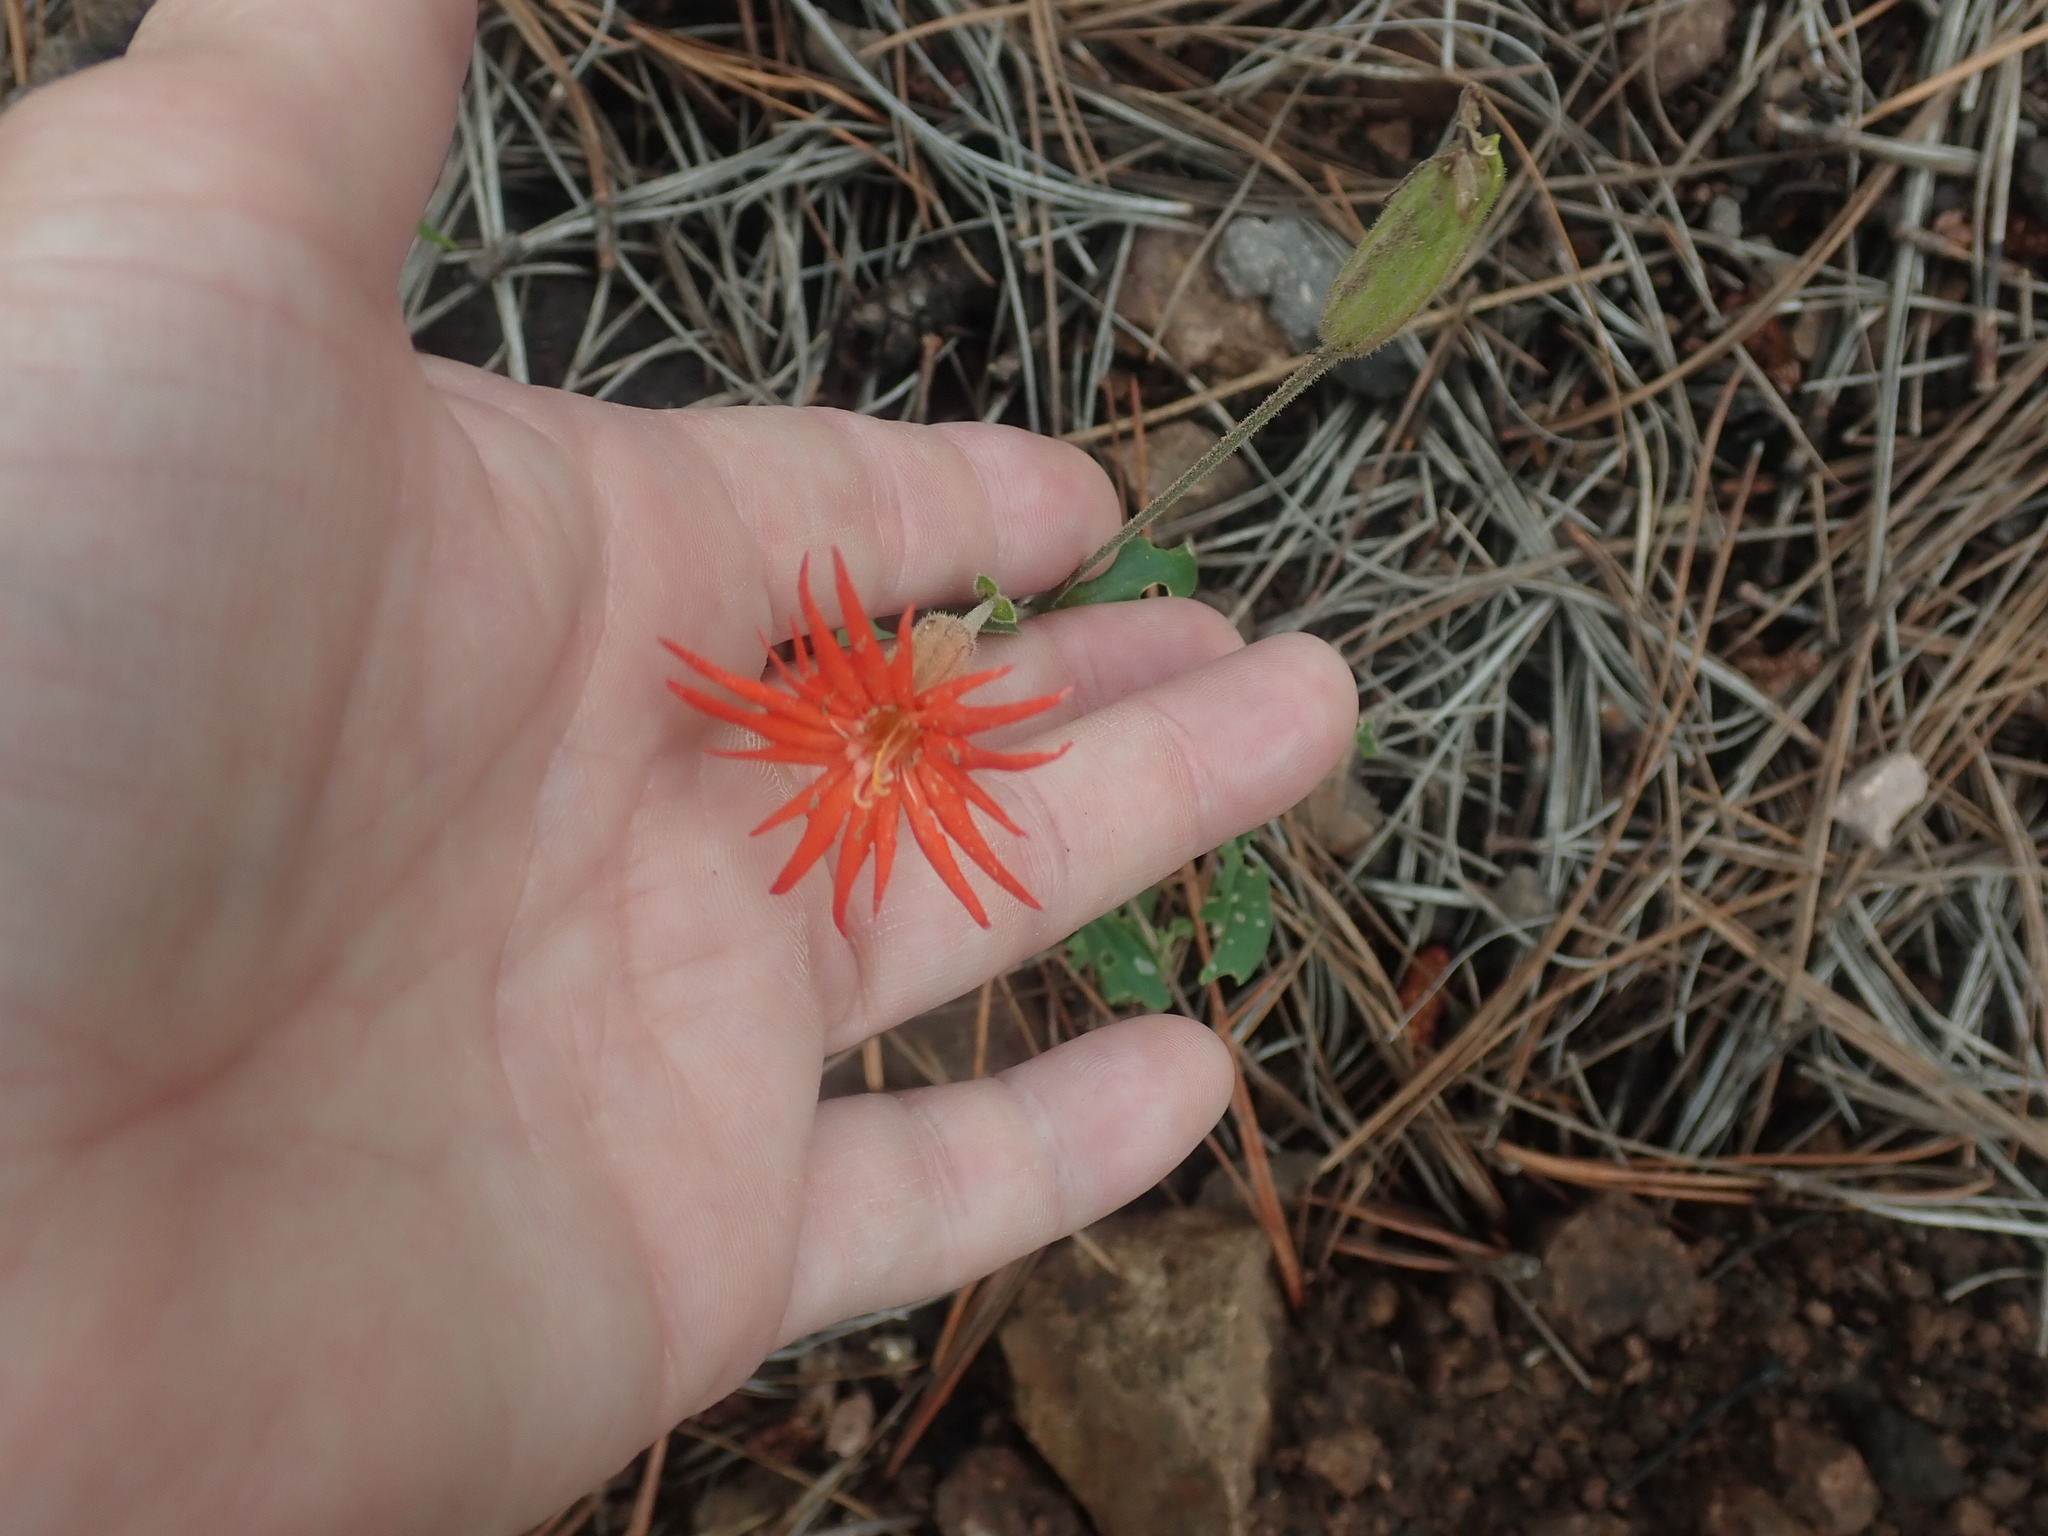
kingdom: Plantae
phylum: Tracheophyta
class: Magnoliopsida
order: Caryophyllales
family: Caryophyllaceae
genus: Silene
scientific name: Silene laciniata
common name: Indian-pink
